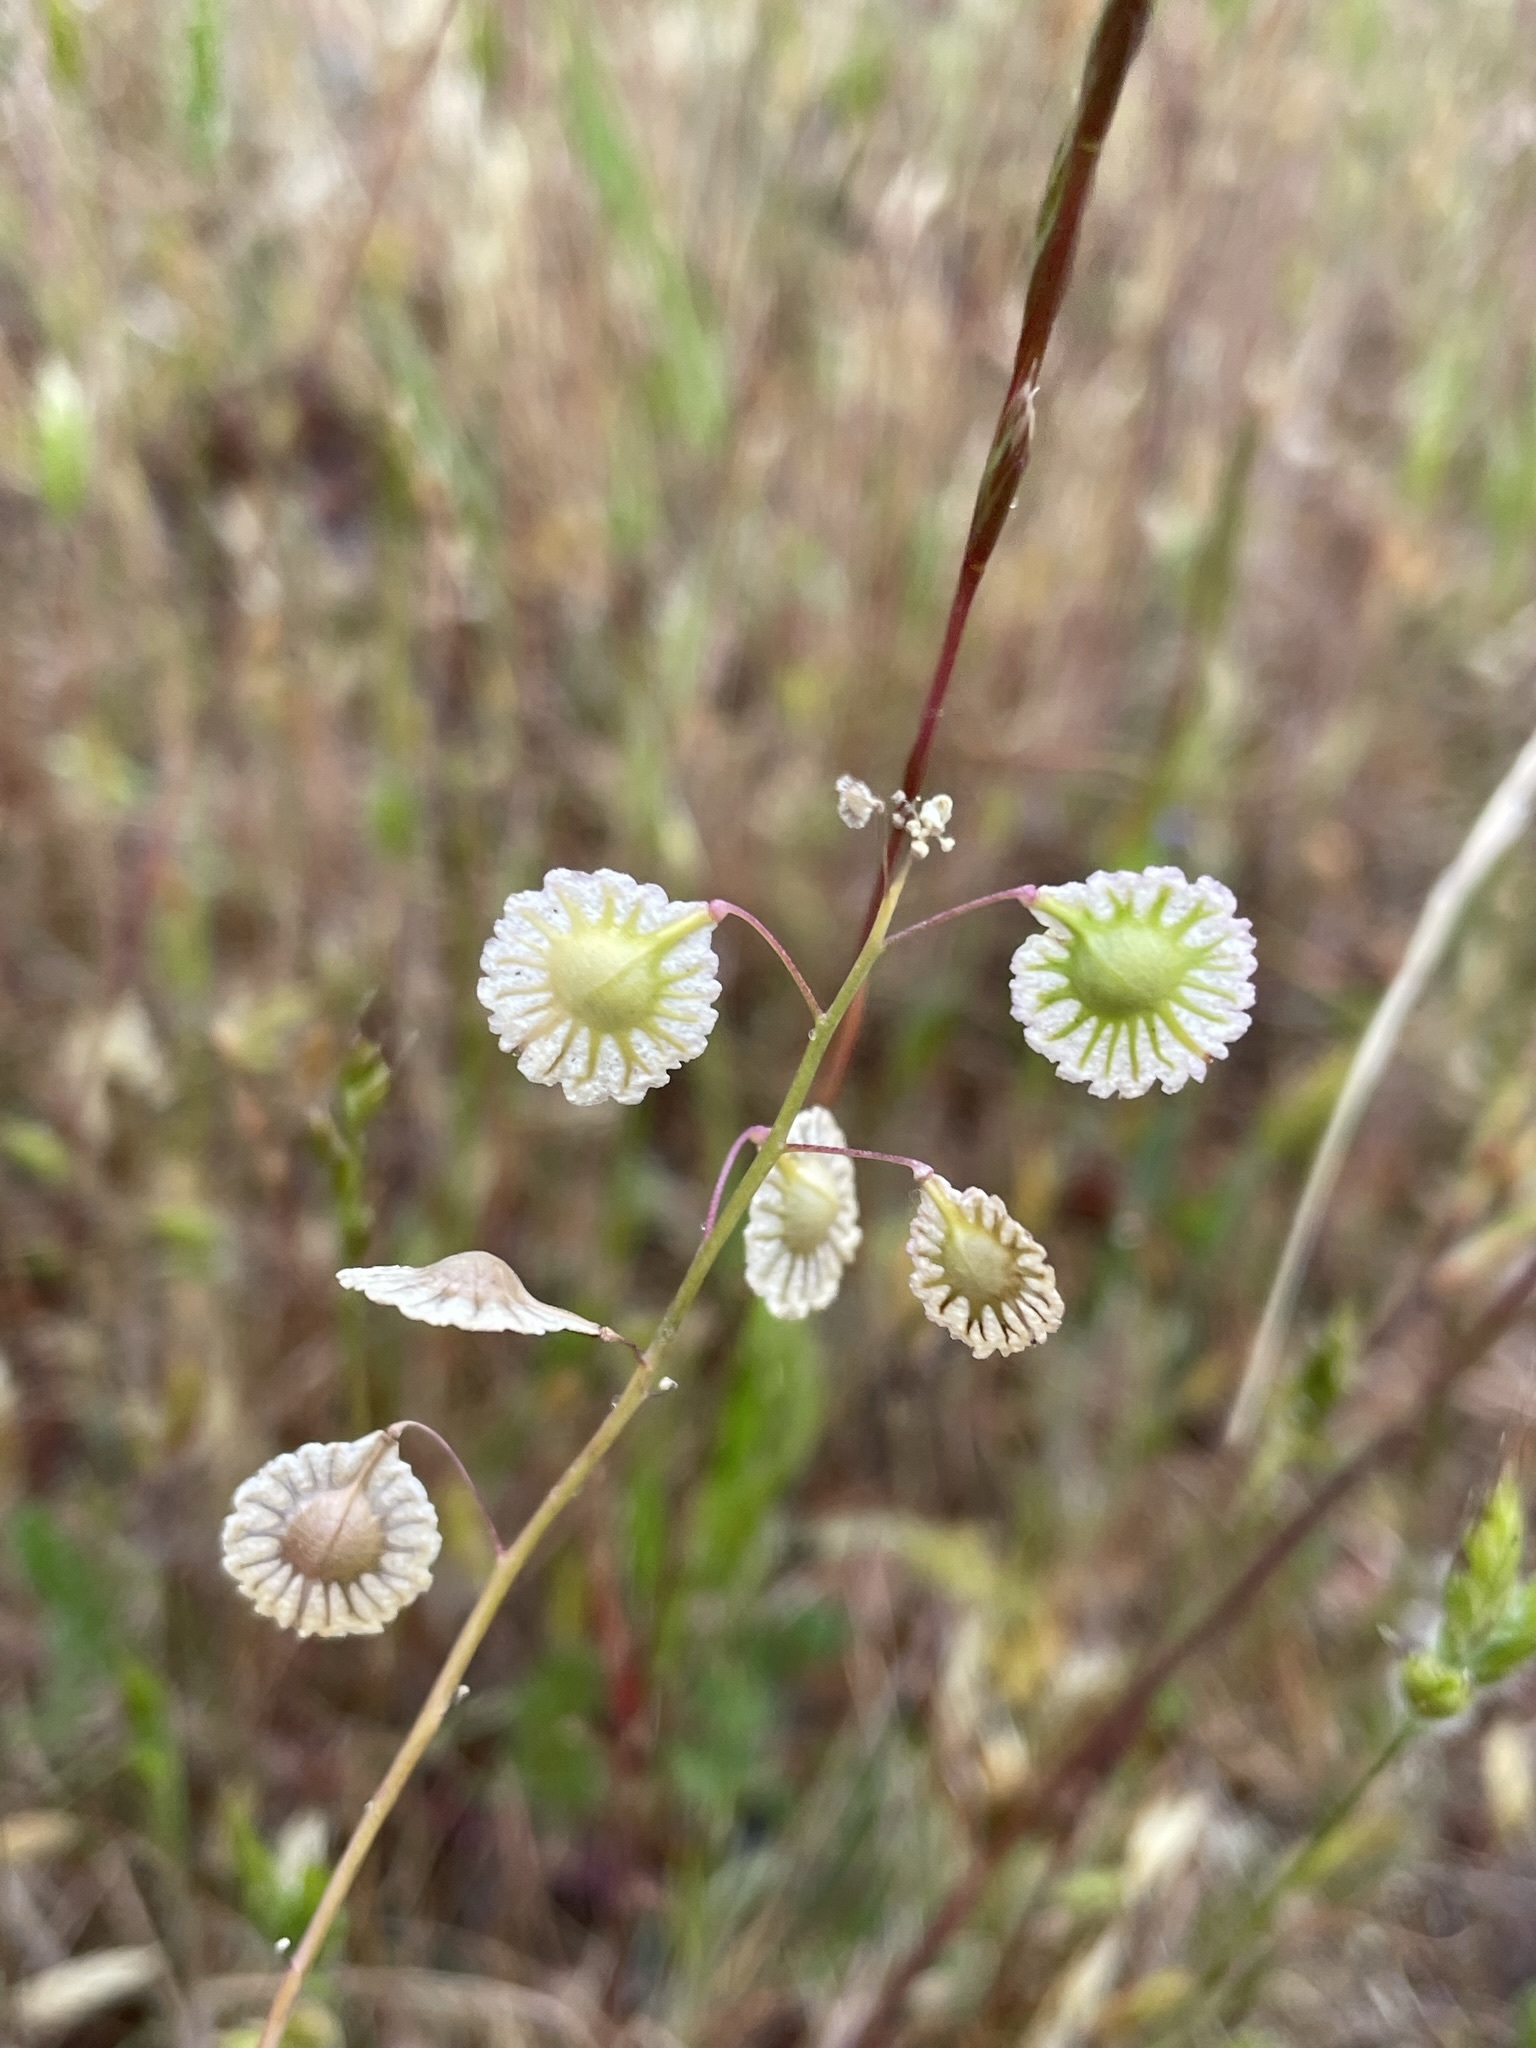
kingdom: Plantae
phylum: Tracheophyta
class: Magnoliopsida
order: Brassicales
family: Brassicaceae
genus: Thysanocarpus
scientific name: Thysanocarpus radians
